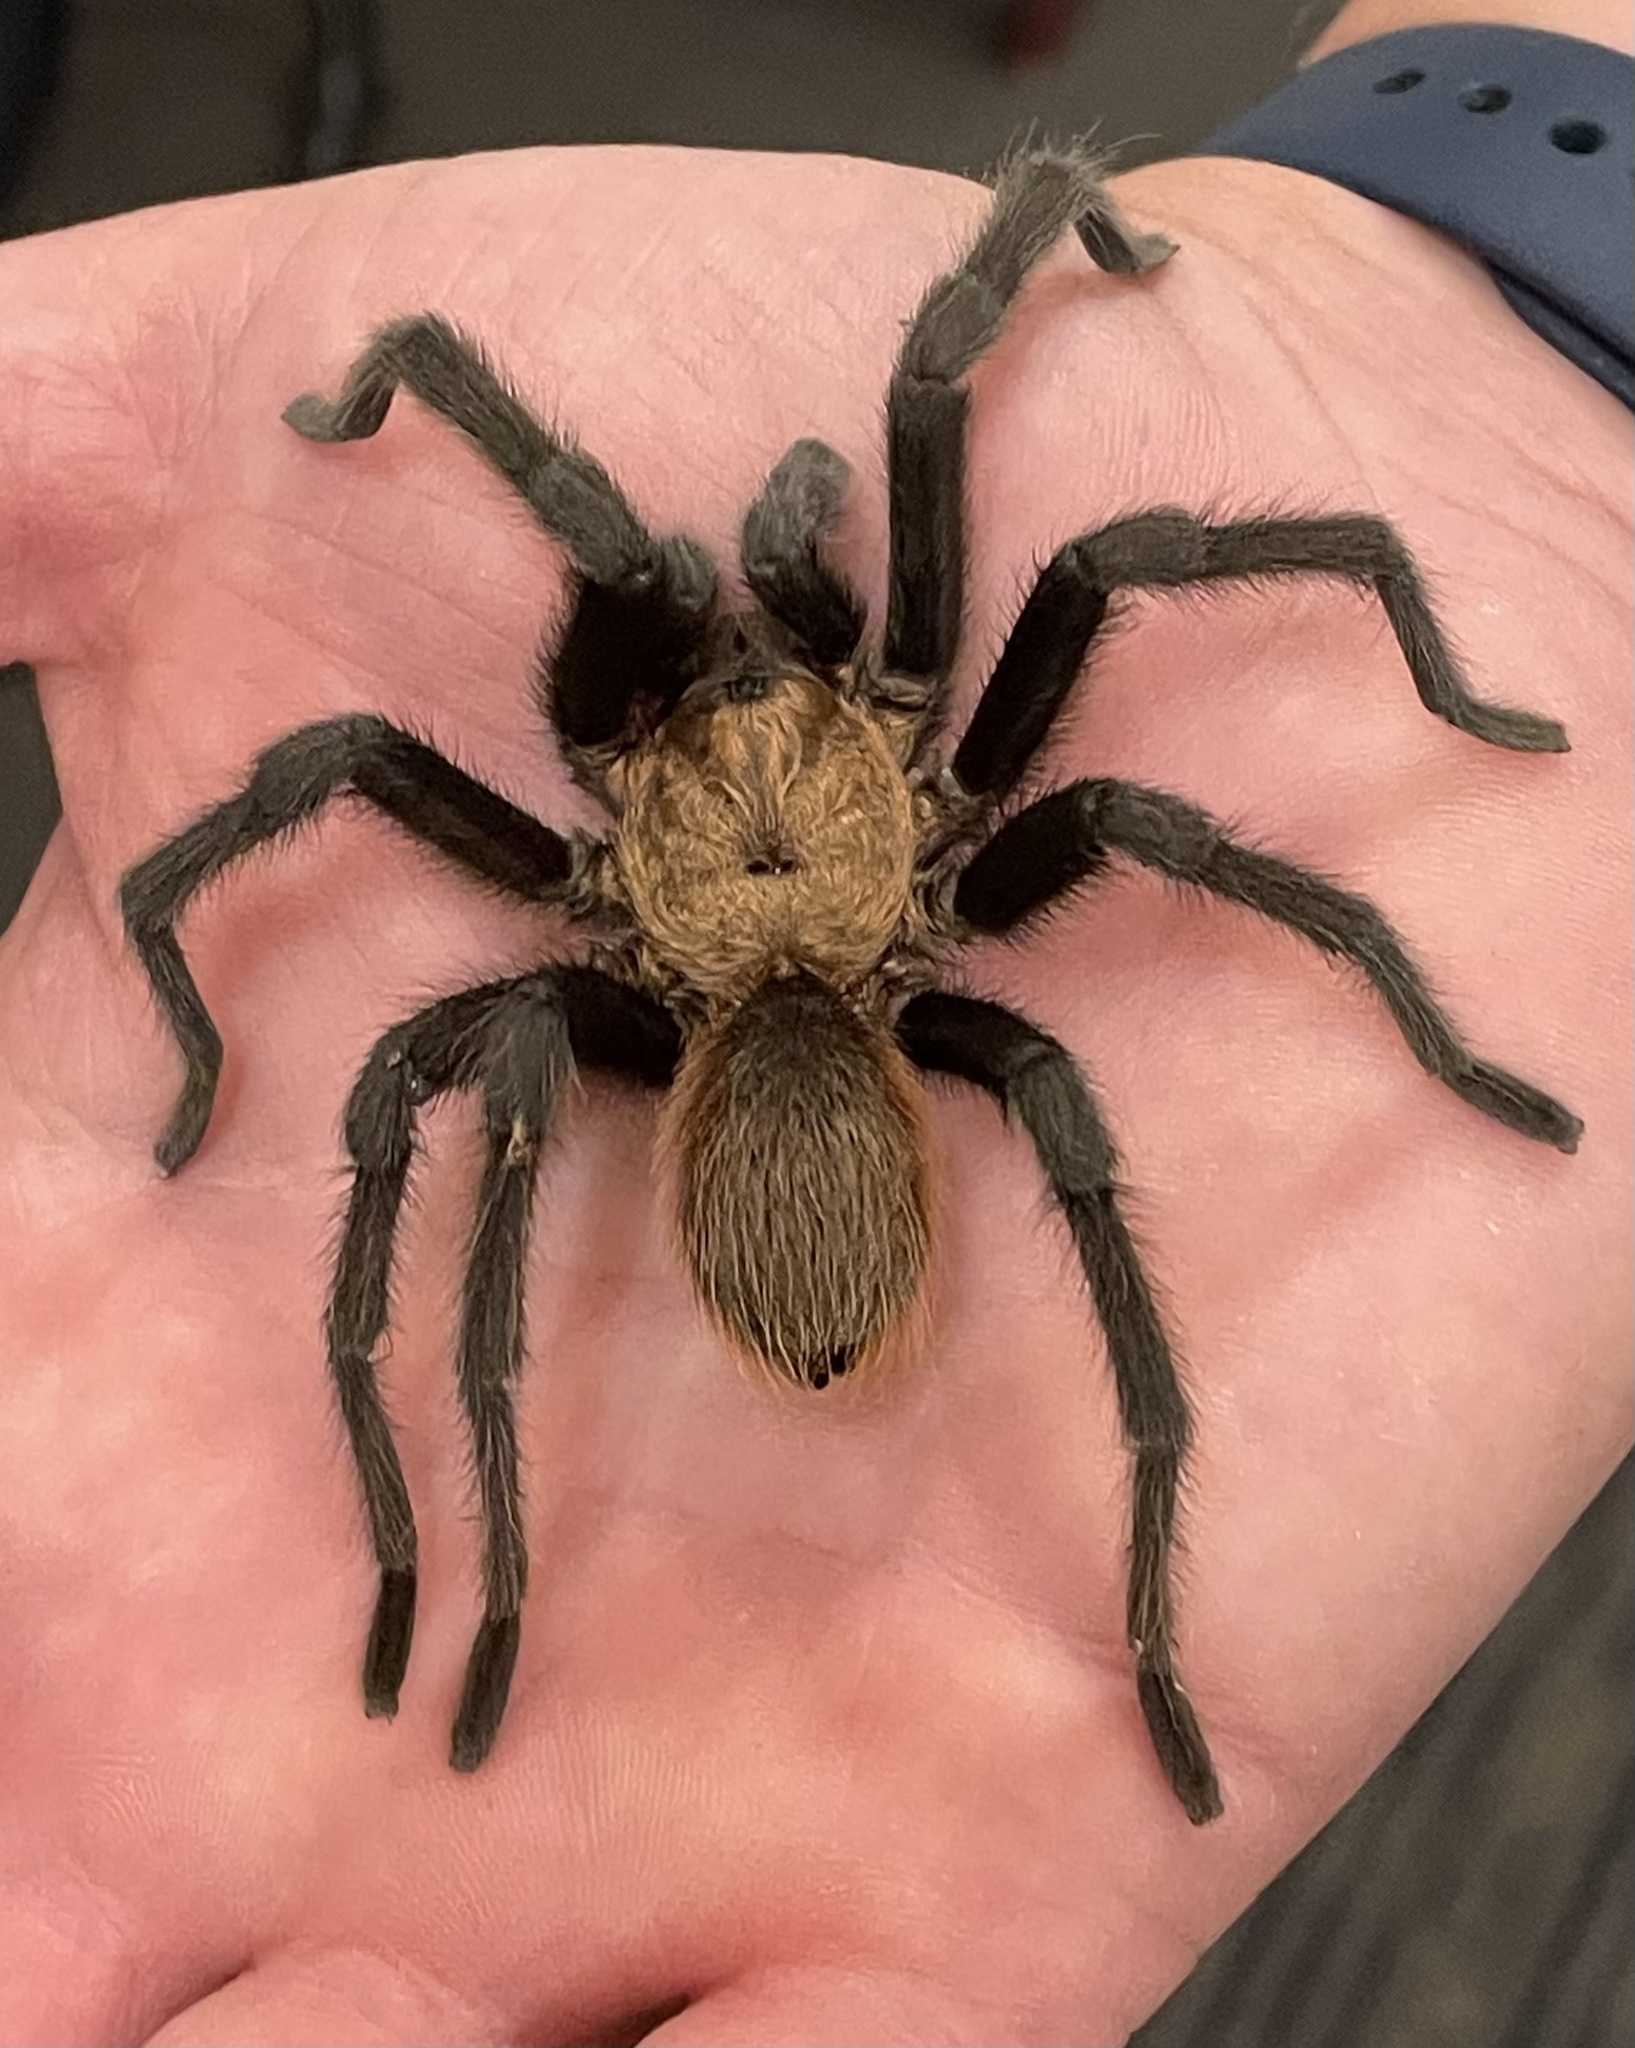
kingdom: Animalia
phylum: Arthropoda
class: Arachnida
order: Araneae
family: Theraphosidae
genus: Aphonopelma
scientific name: Aphonopelma hentzi
